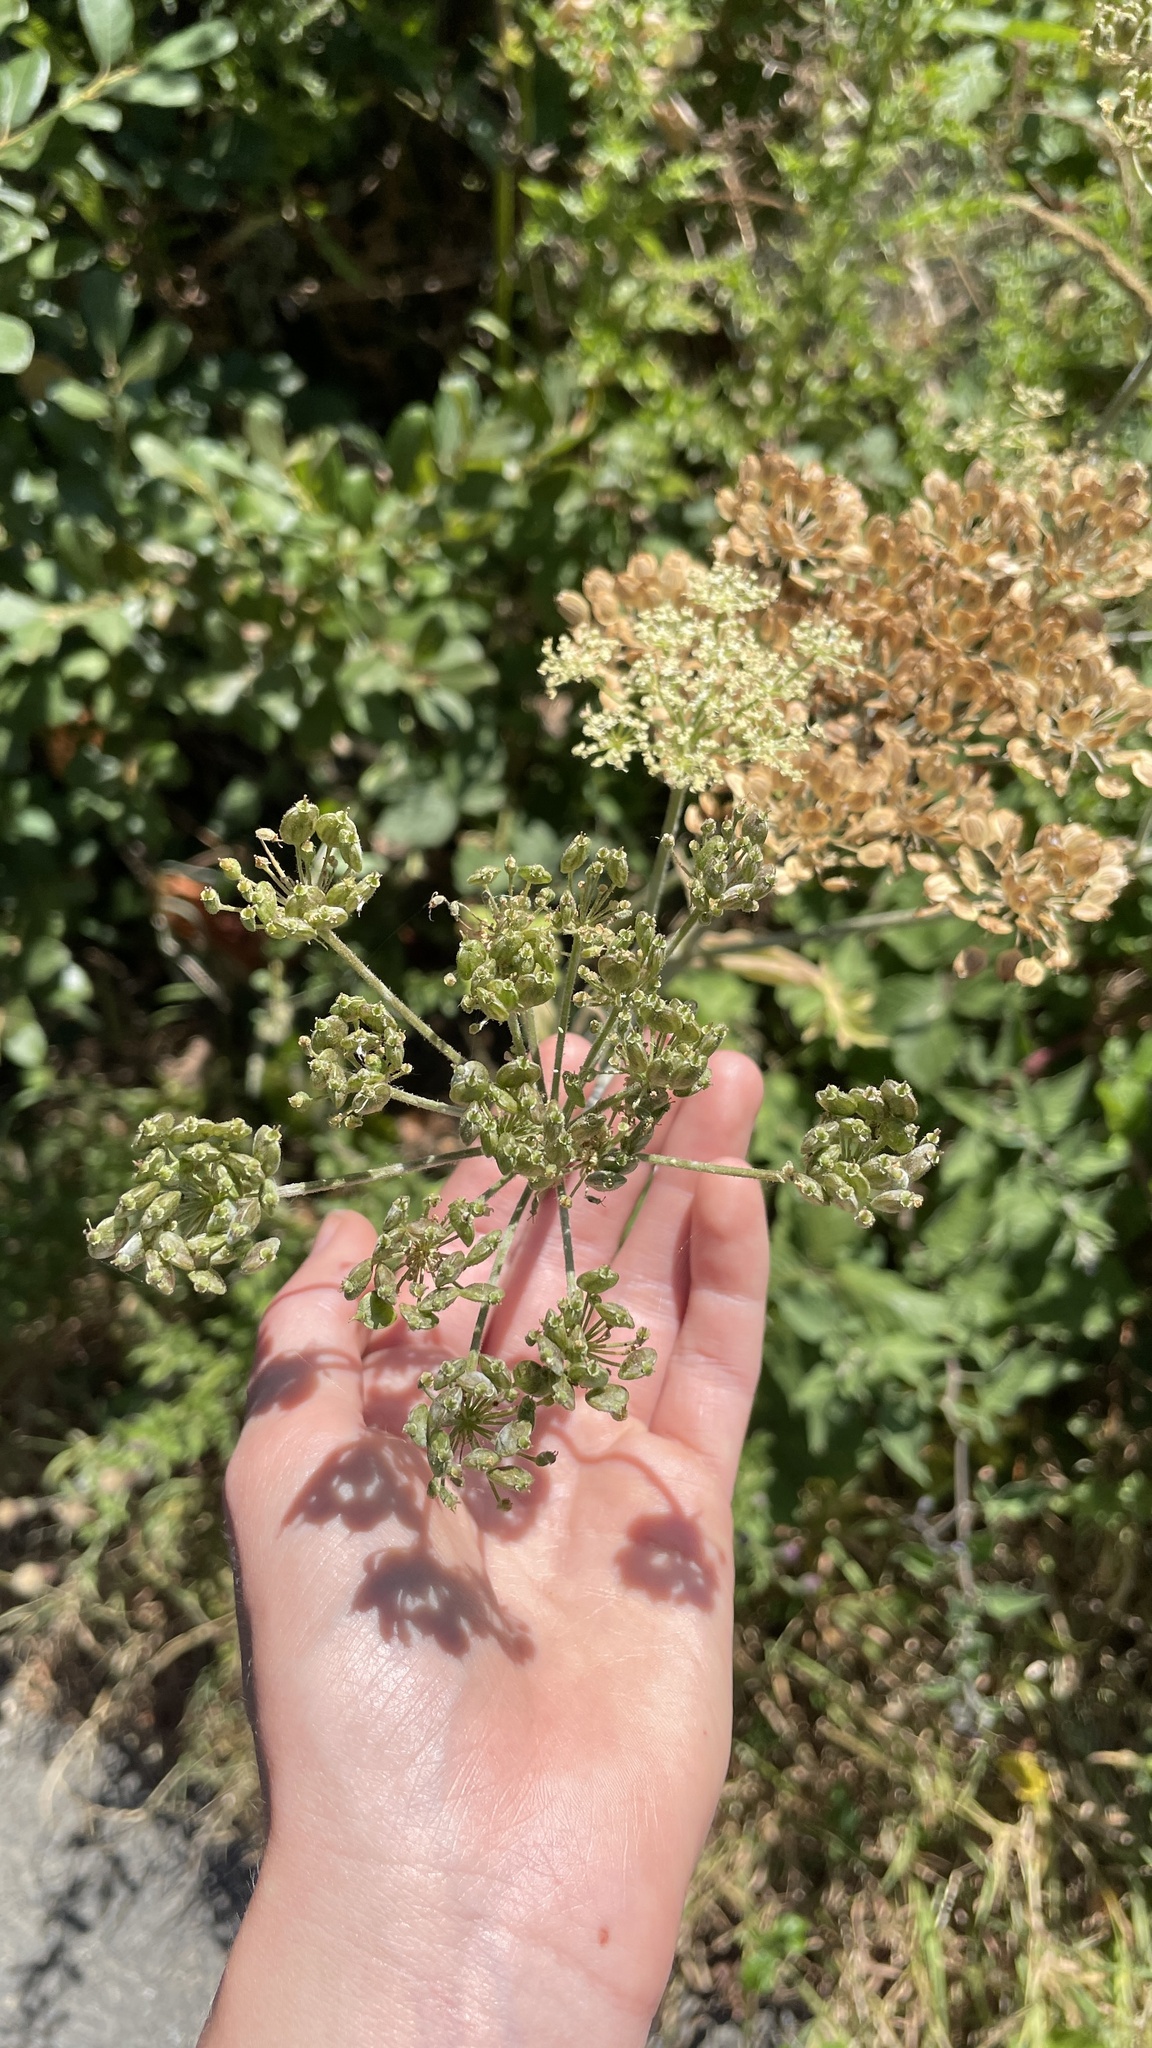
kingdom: Plantae
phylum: Tracheophyta
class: Magnoliopsida
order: Apiales
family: Apiaceae
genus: Heracleum
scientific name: Heracleum sphondylium
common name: Hogweed
